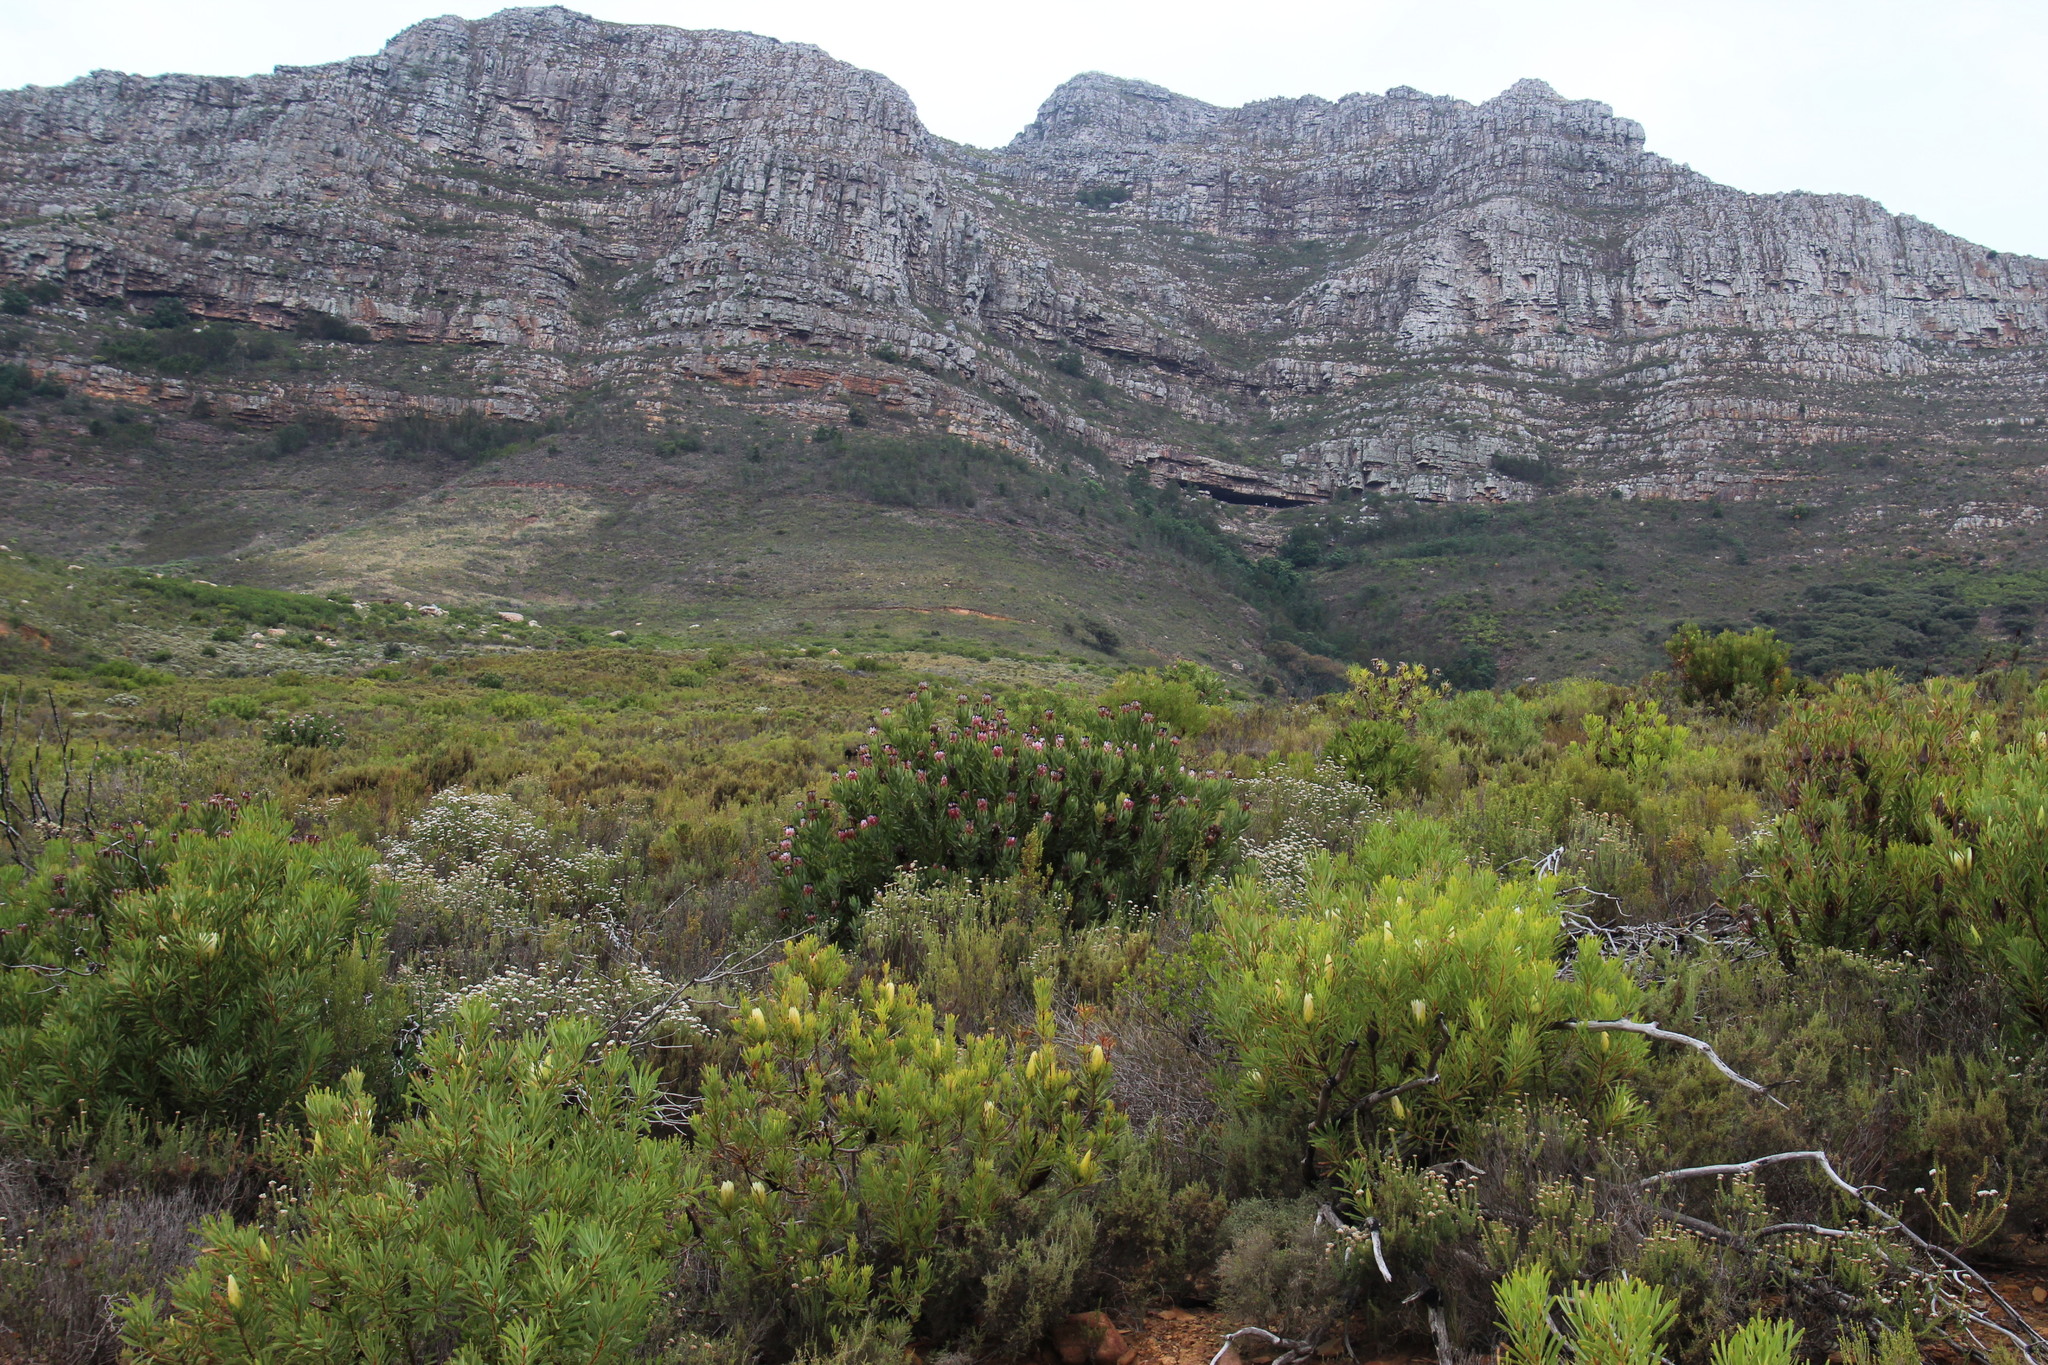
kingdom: Plantae
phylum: Tracheophyta
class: Magnoliopsida
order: Proteales
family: Proteaceae
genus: Protea
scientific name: Protea repens
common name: Sugarbush
